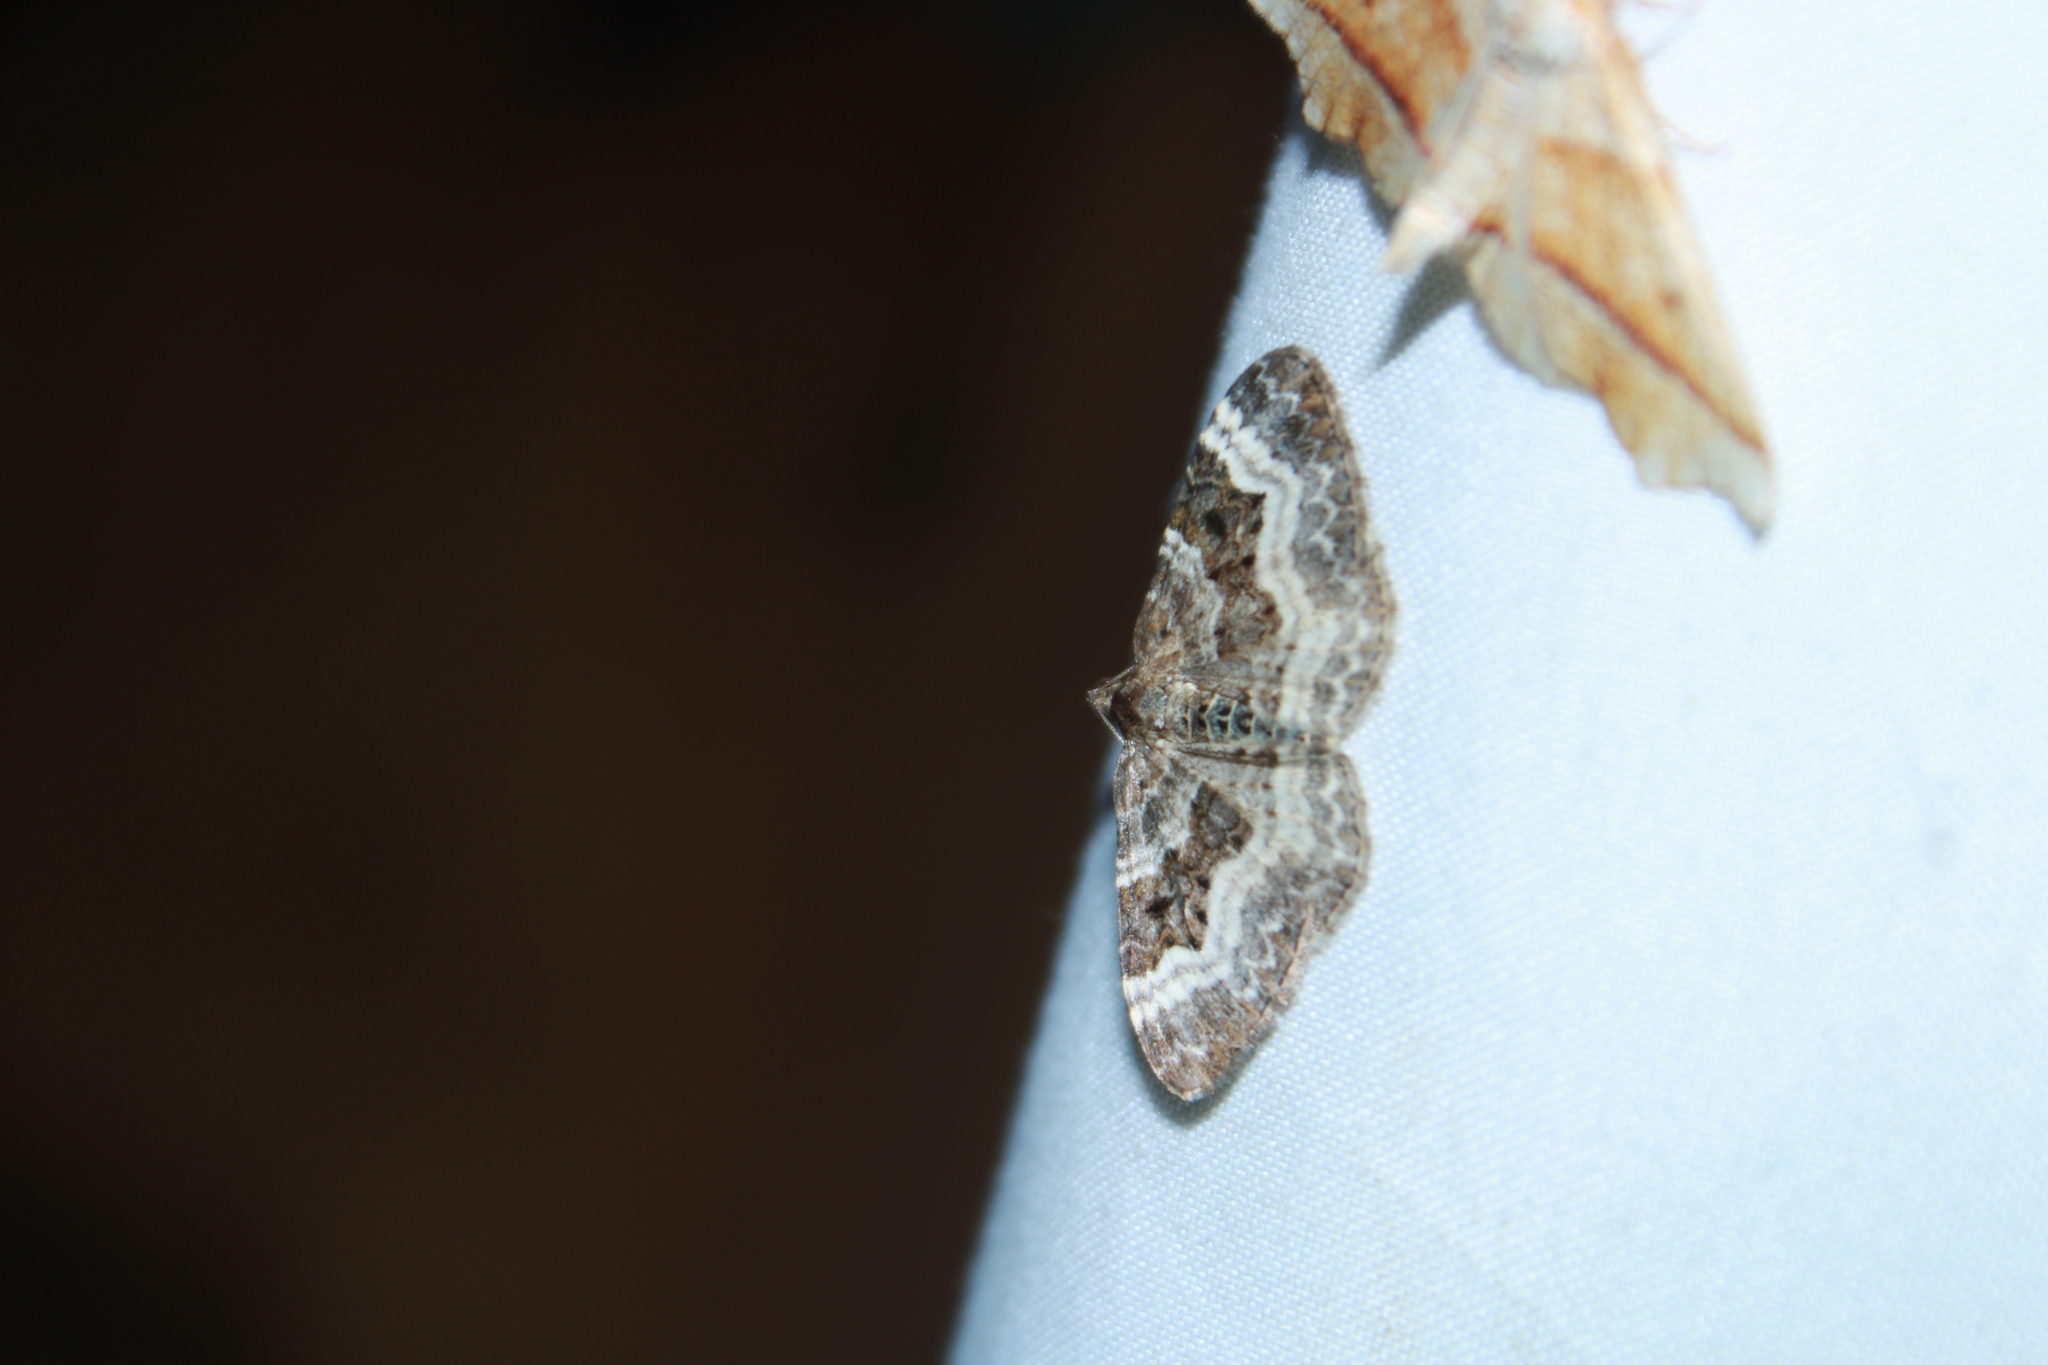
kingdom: Animalia
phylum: Arthropoda
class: Insecta
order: Lepidoptera
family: Geometridae
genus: Epirrhoe
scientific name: Epirrhoe alternata
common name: Common carpet
